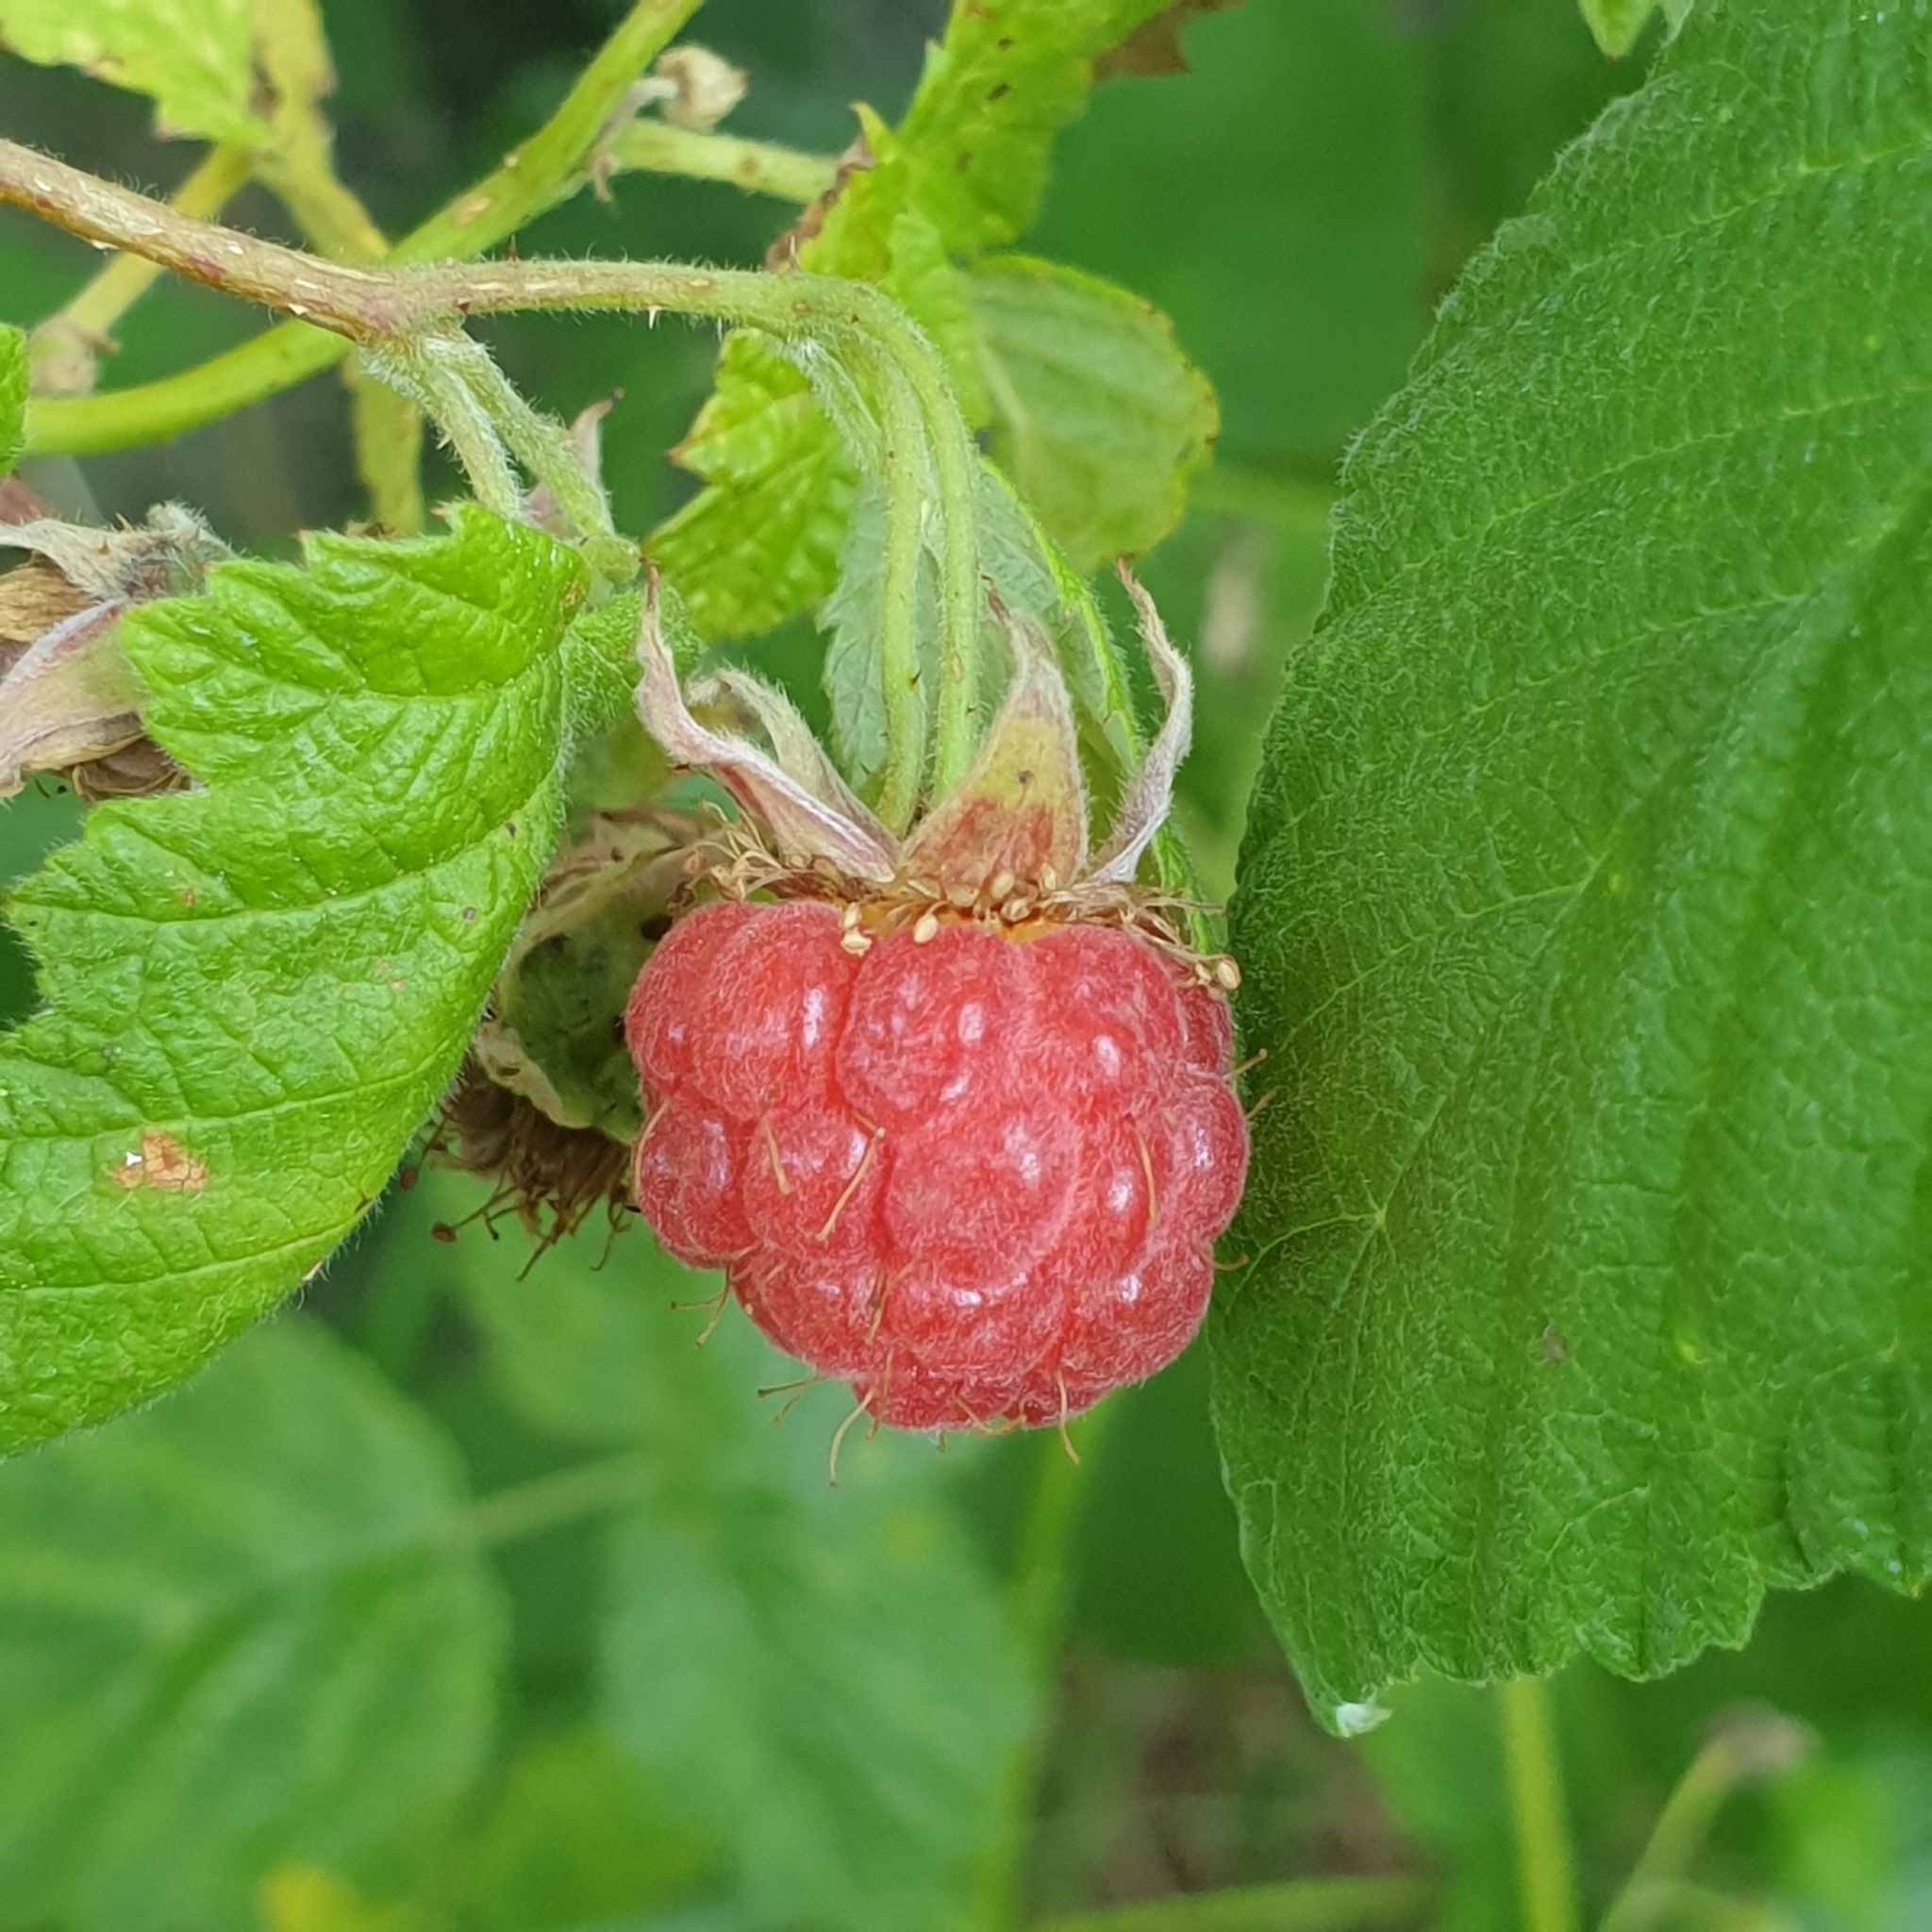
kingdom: Plantae
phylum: Tracheophyta
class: Magnoliopsida
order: Rosales
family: Rosaceae
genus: Rubus
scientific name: Rubus idaeus
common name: Raspberry
